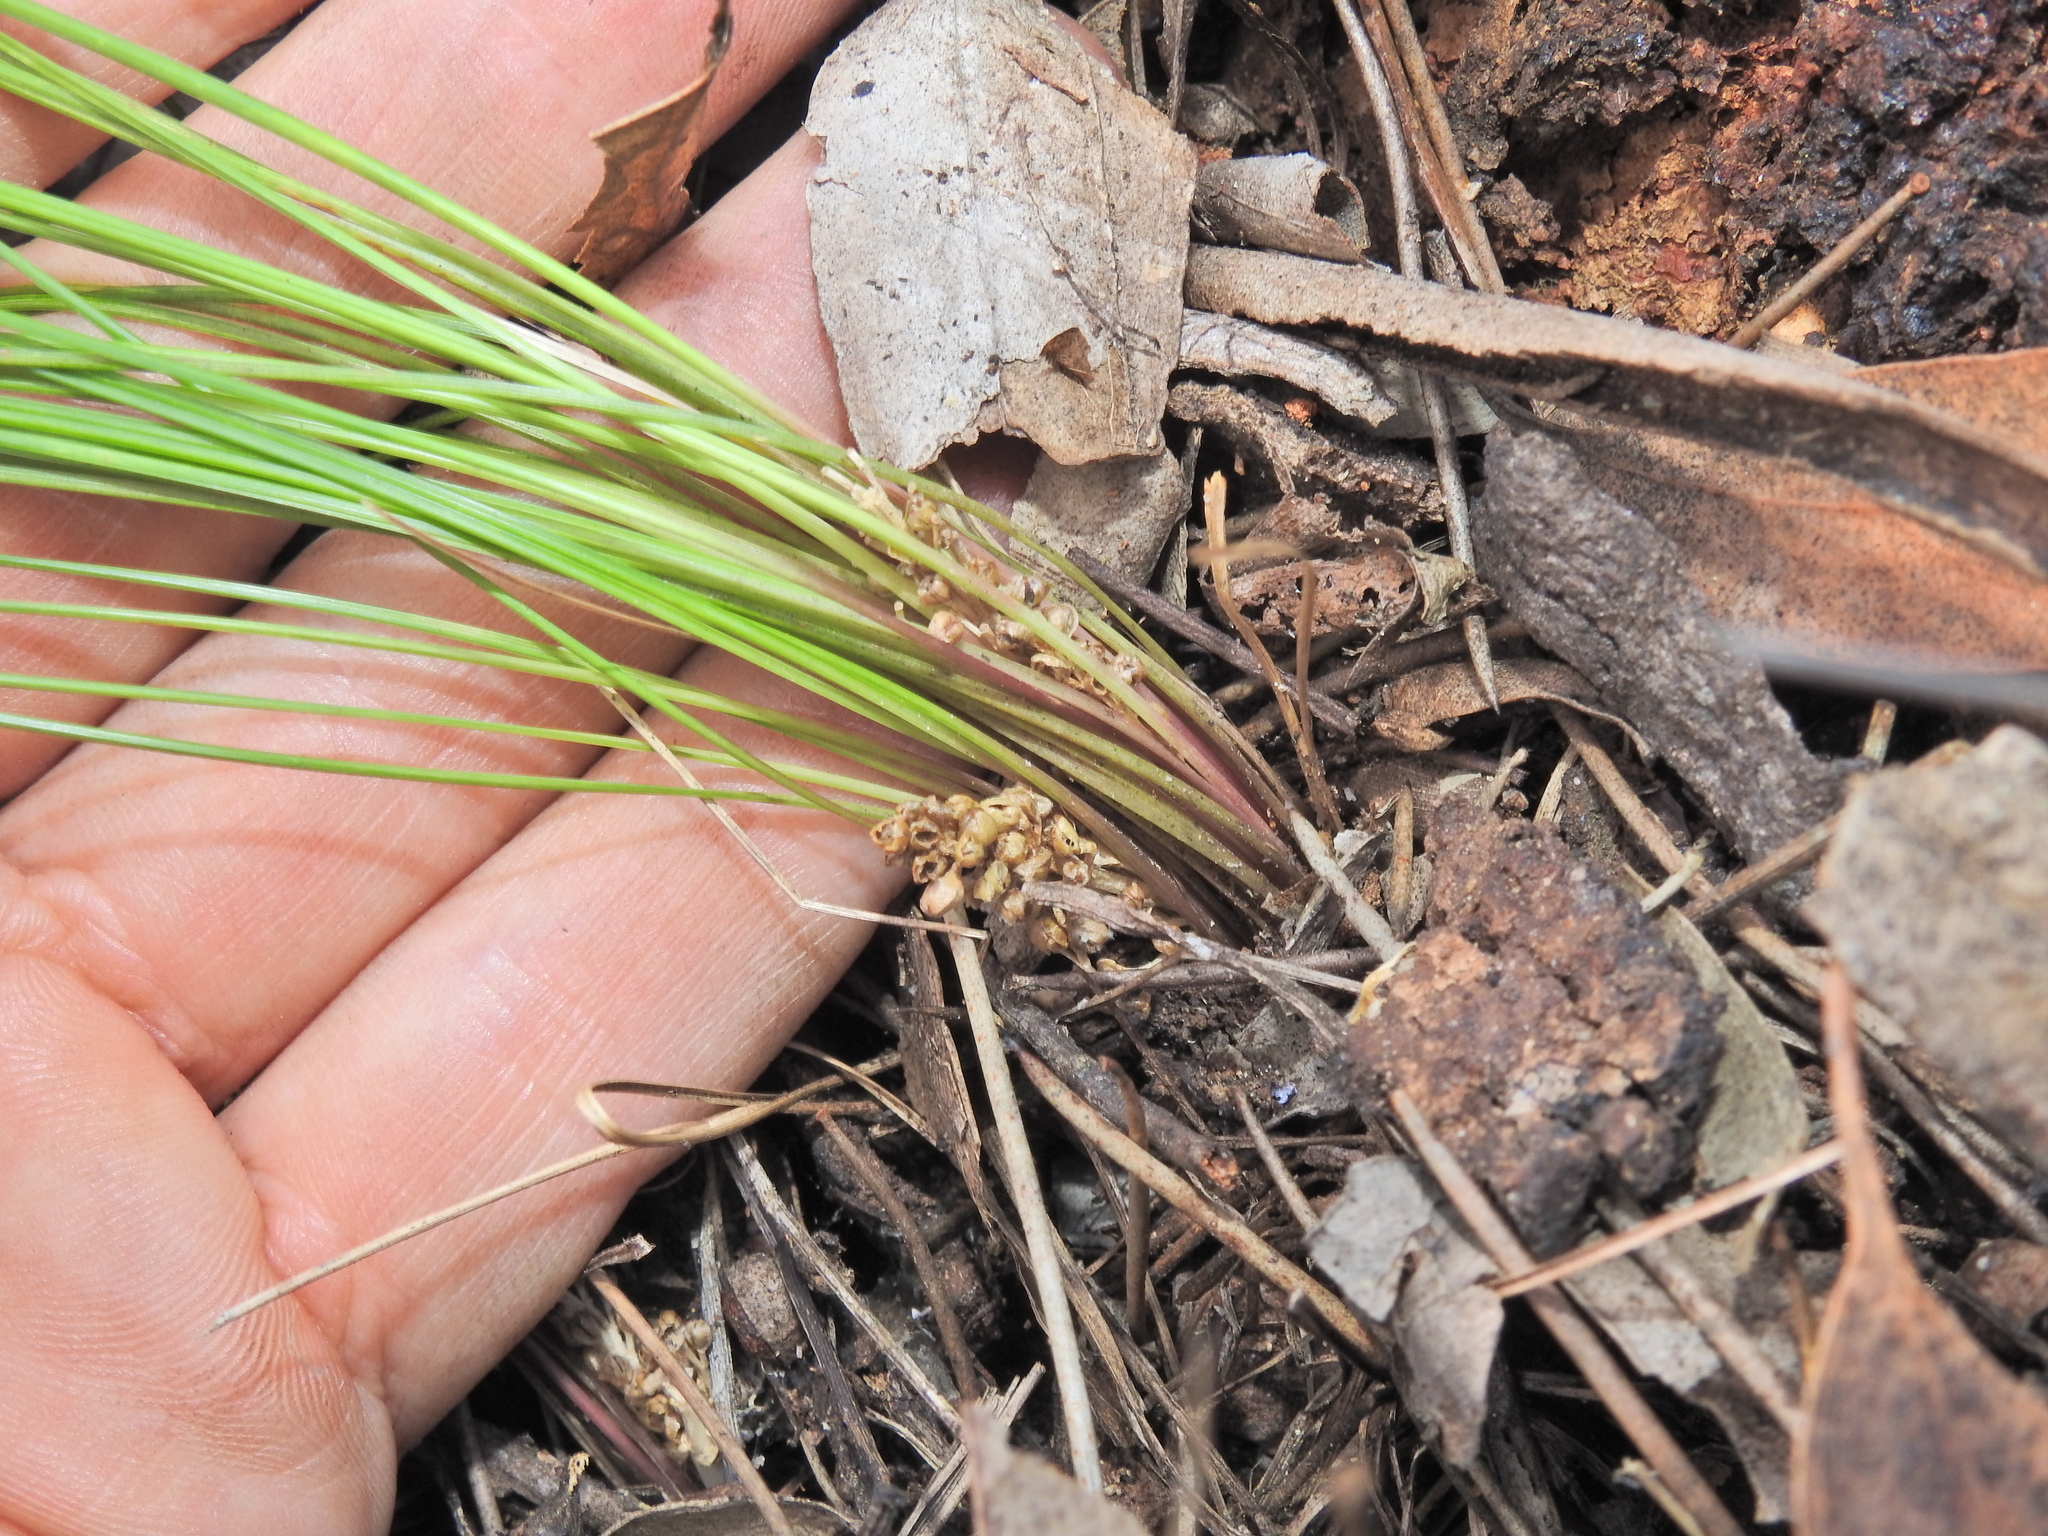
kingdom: Plantae
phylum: Tracheophyta
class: Liliopsida
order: Asparagales
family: Asparagaceae
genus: Lomandra
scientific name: Lomandra filiformis
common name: Wattle mat-rush
